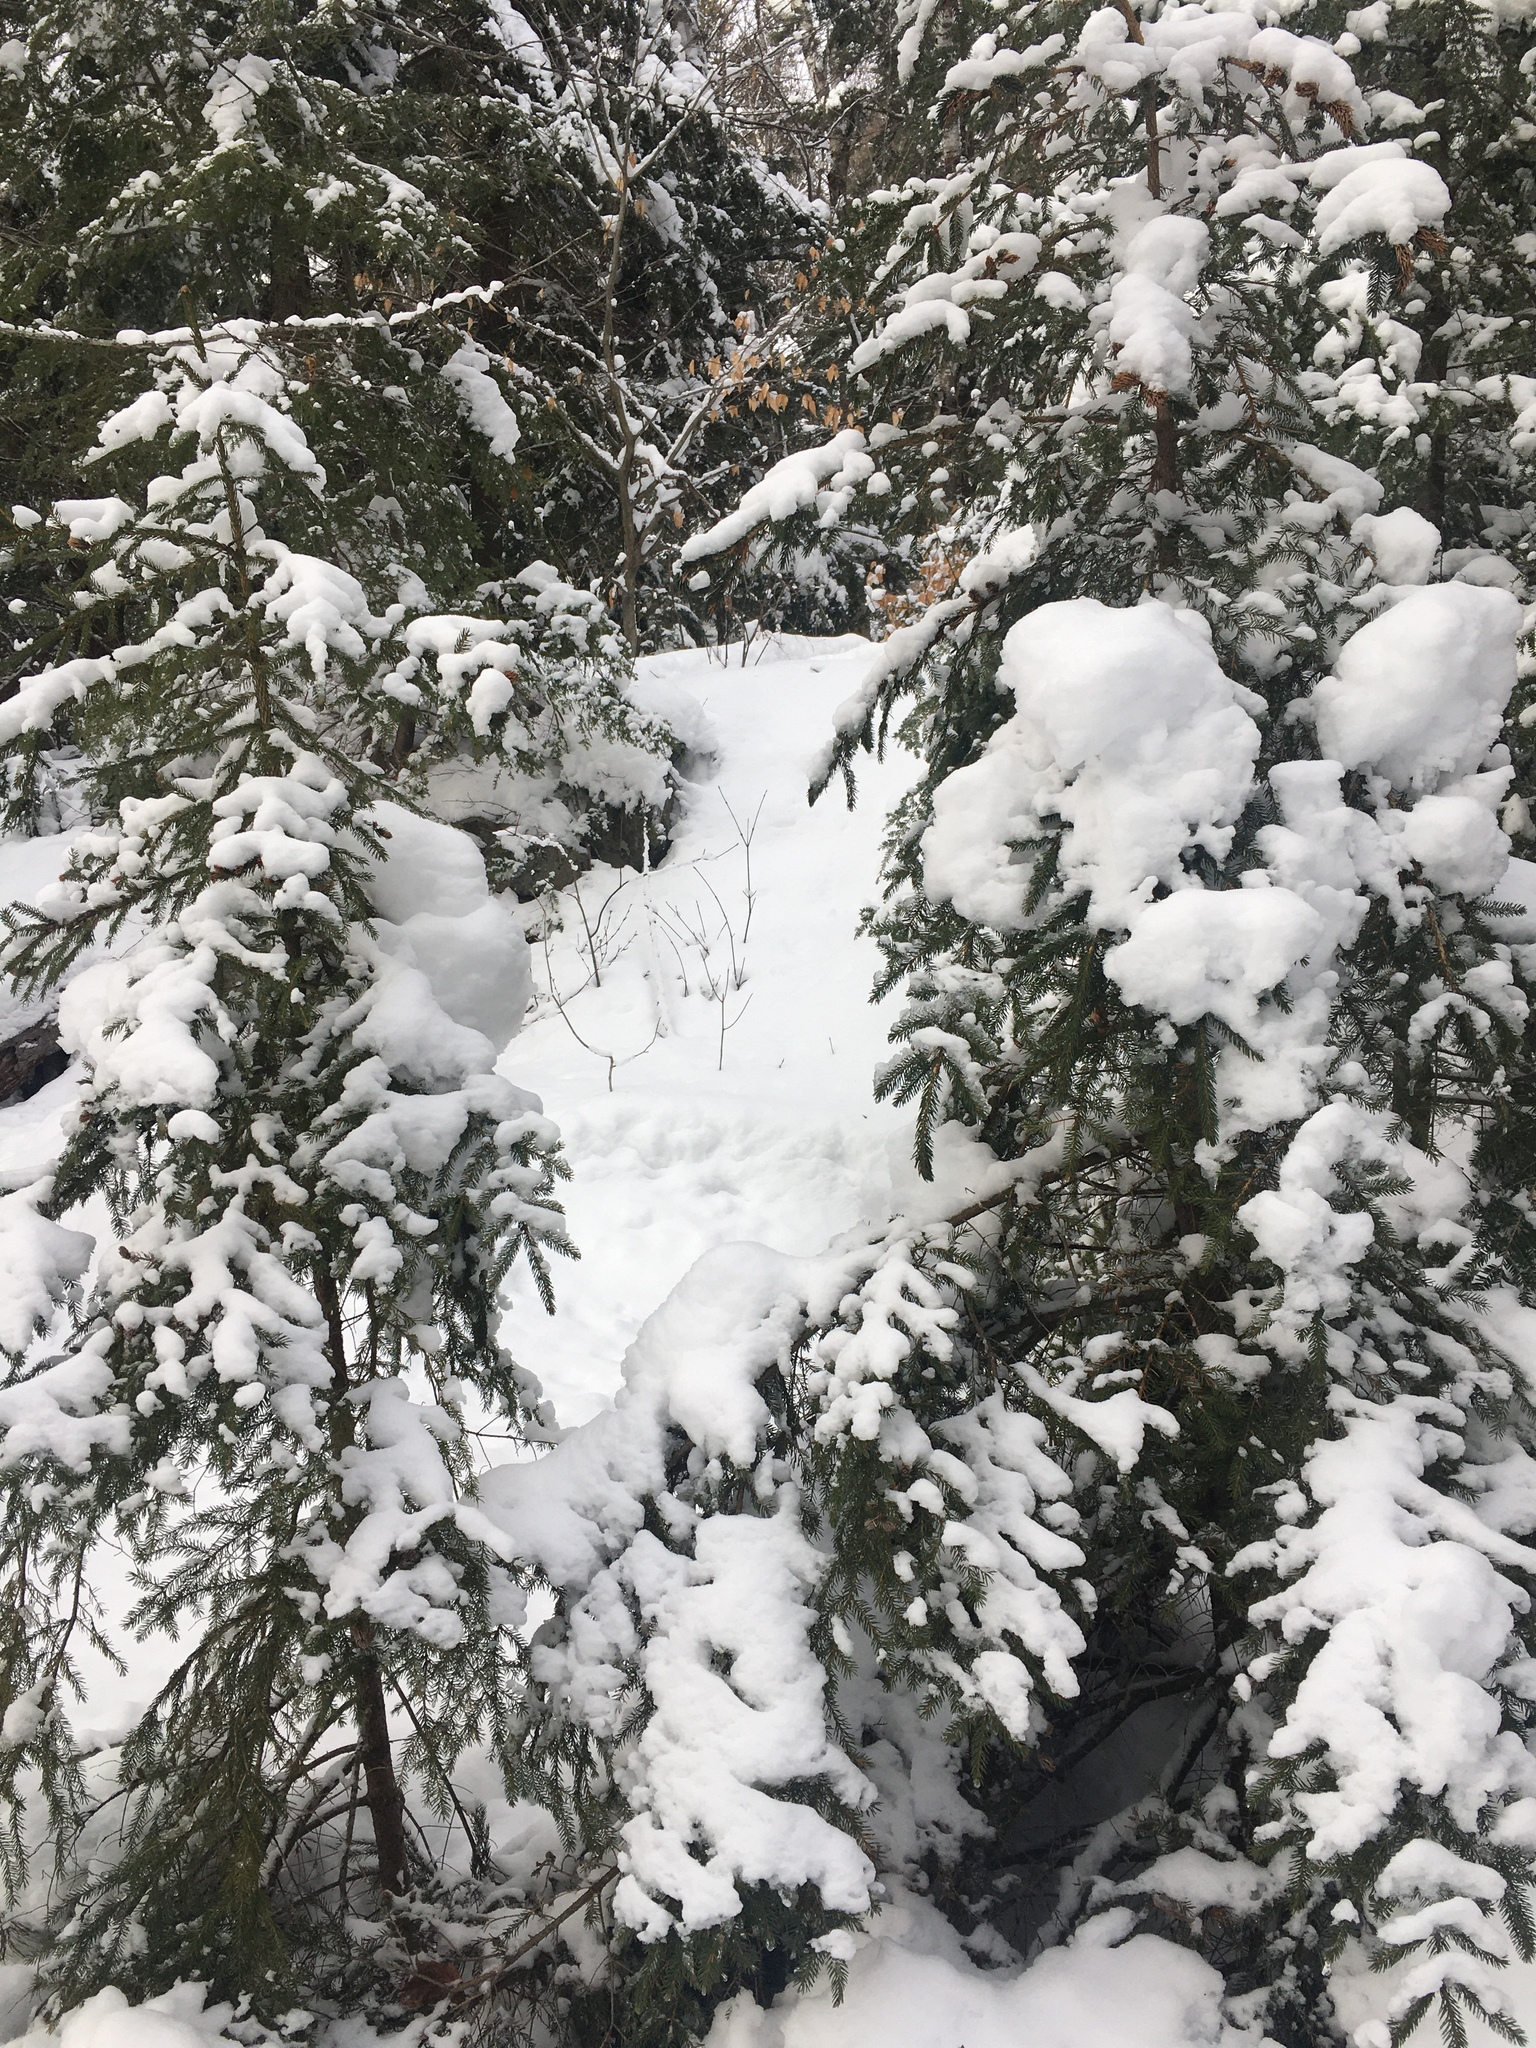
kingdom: Plantae
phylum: Tracheophyta
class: Pinopsida
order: Pinales
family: Pinaceae
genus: Picea
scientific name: Picea rubens
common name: Red spruce
